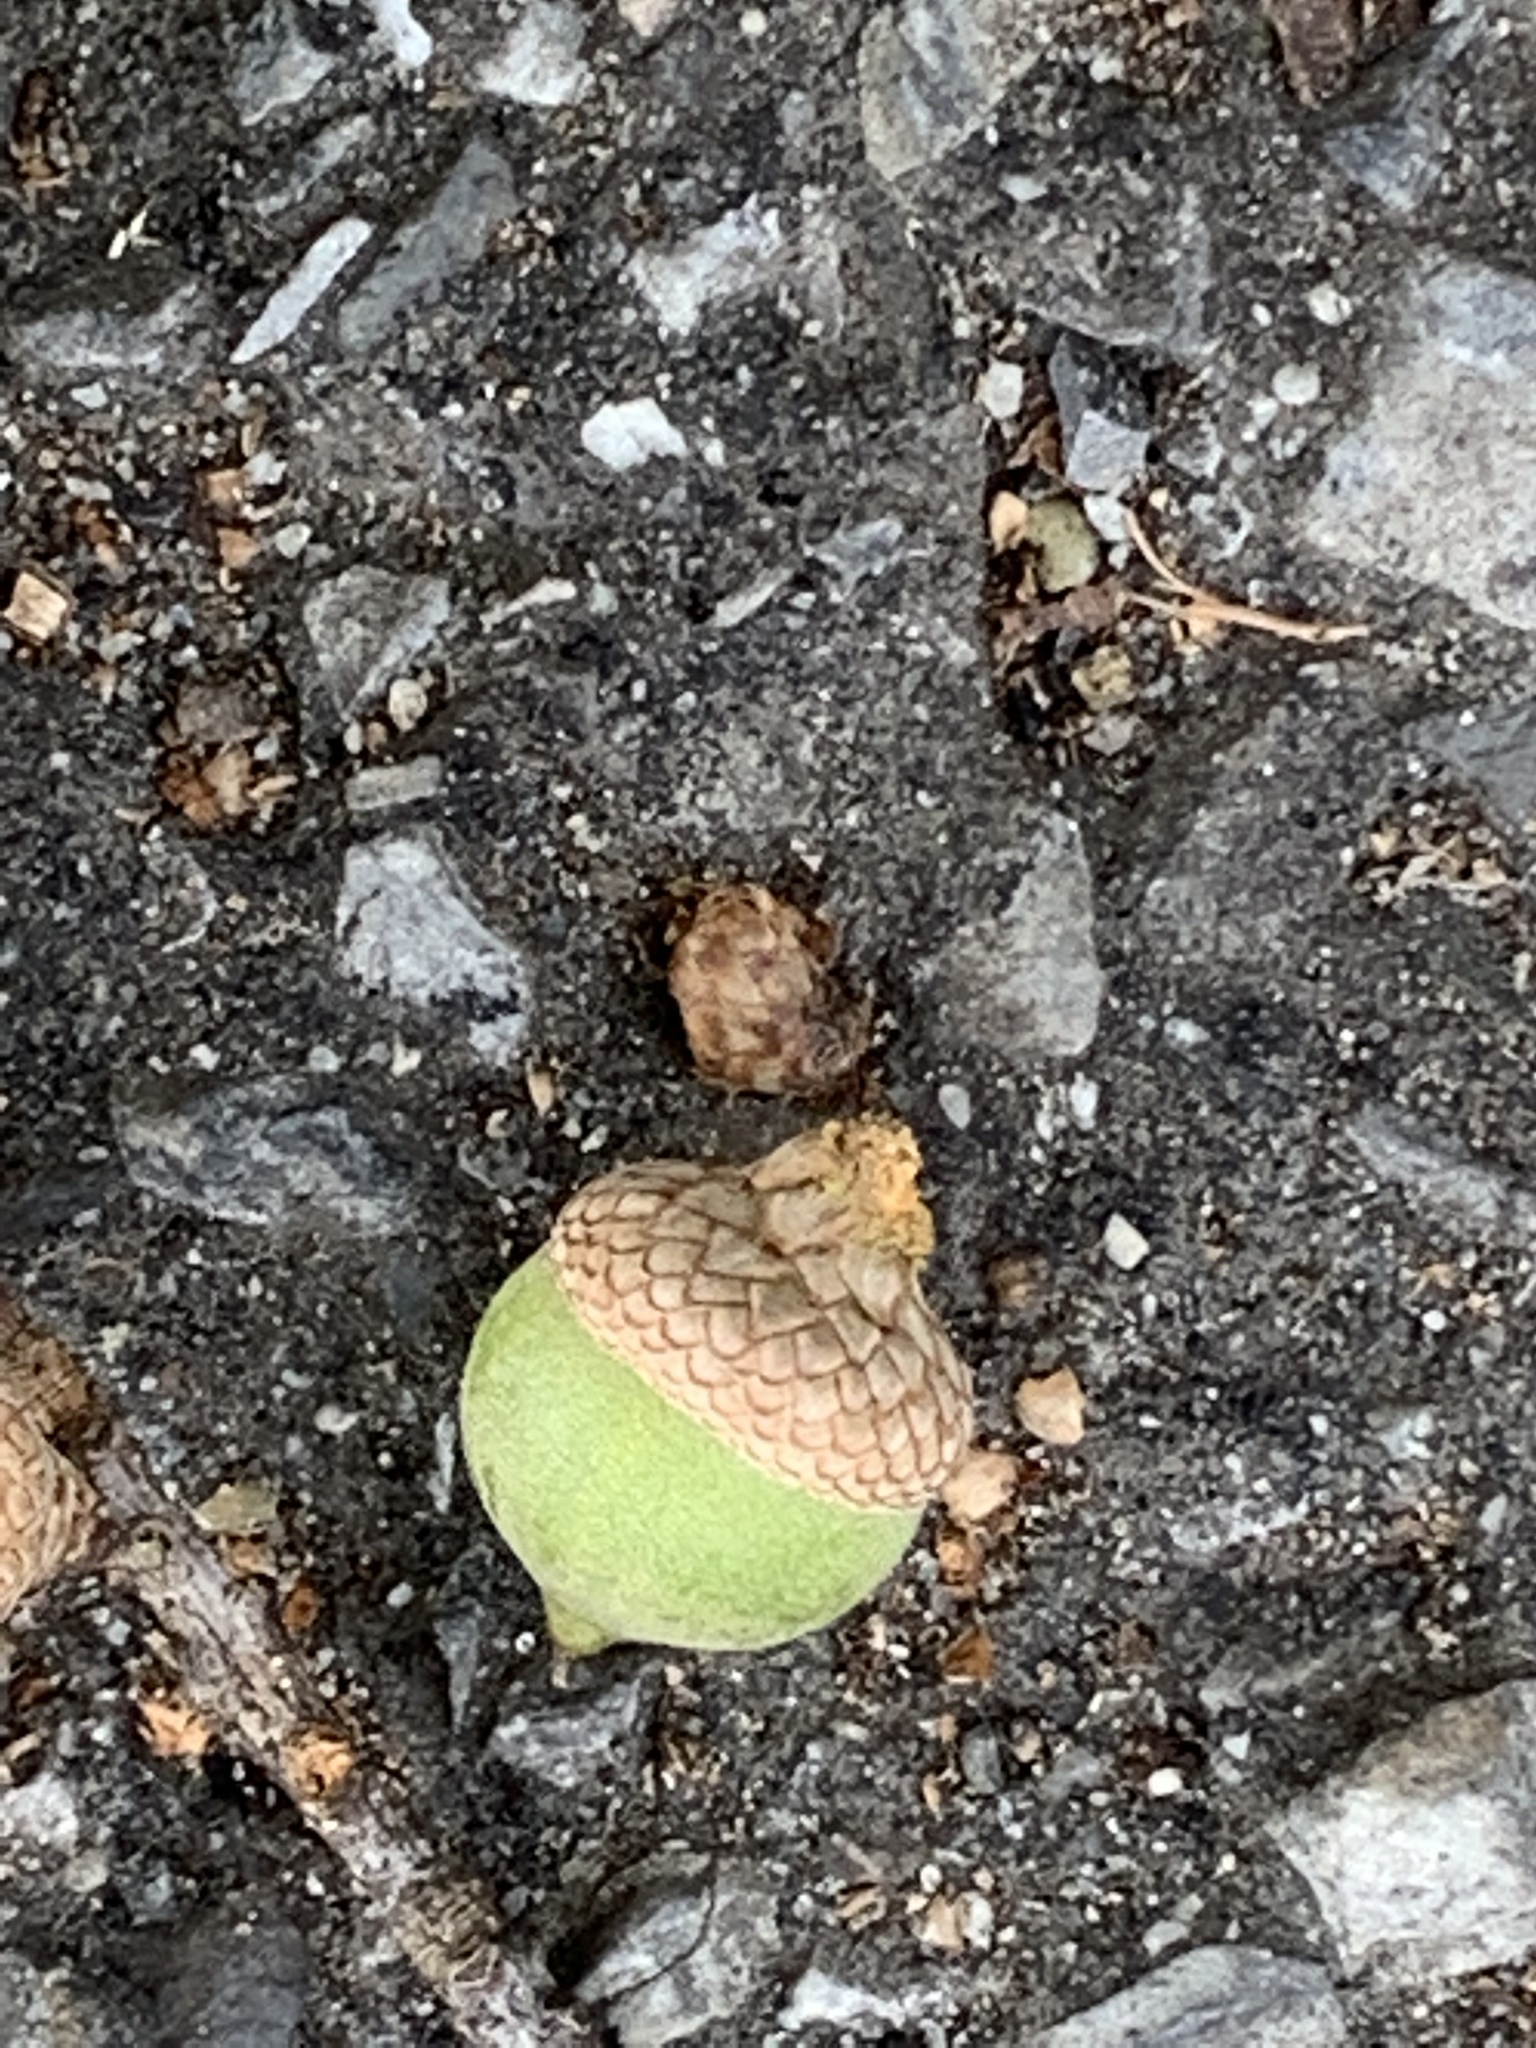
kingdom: Plantae
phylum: Tracheophyta
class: Magnoliopsida
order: Fagales
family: Fagaceae
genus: Quercus
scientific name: Quercus palustris
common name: Pin oak
